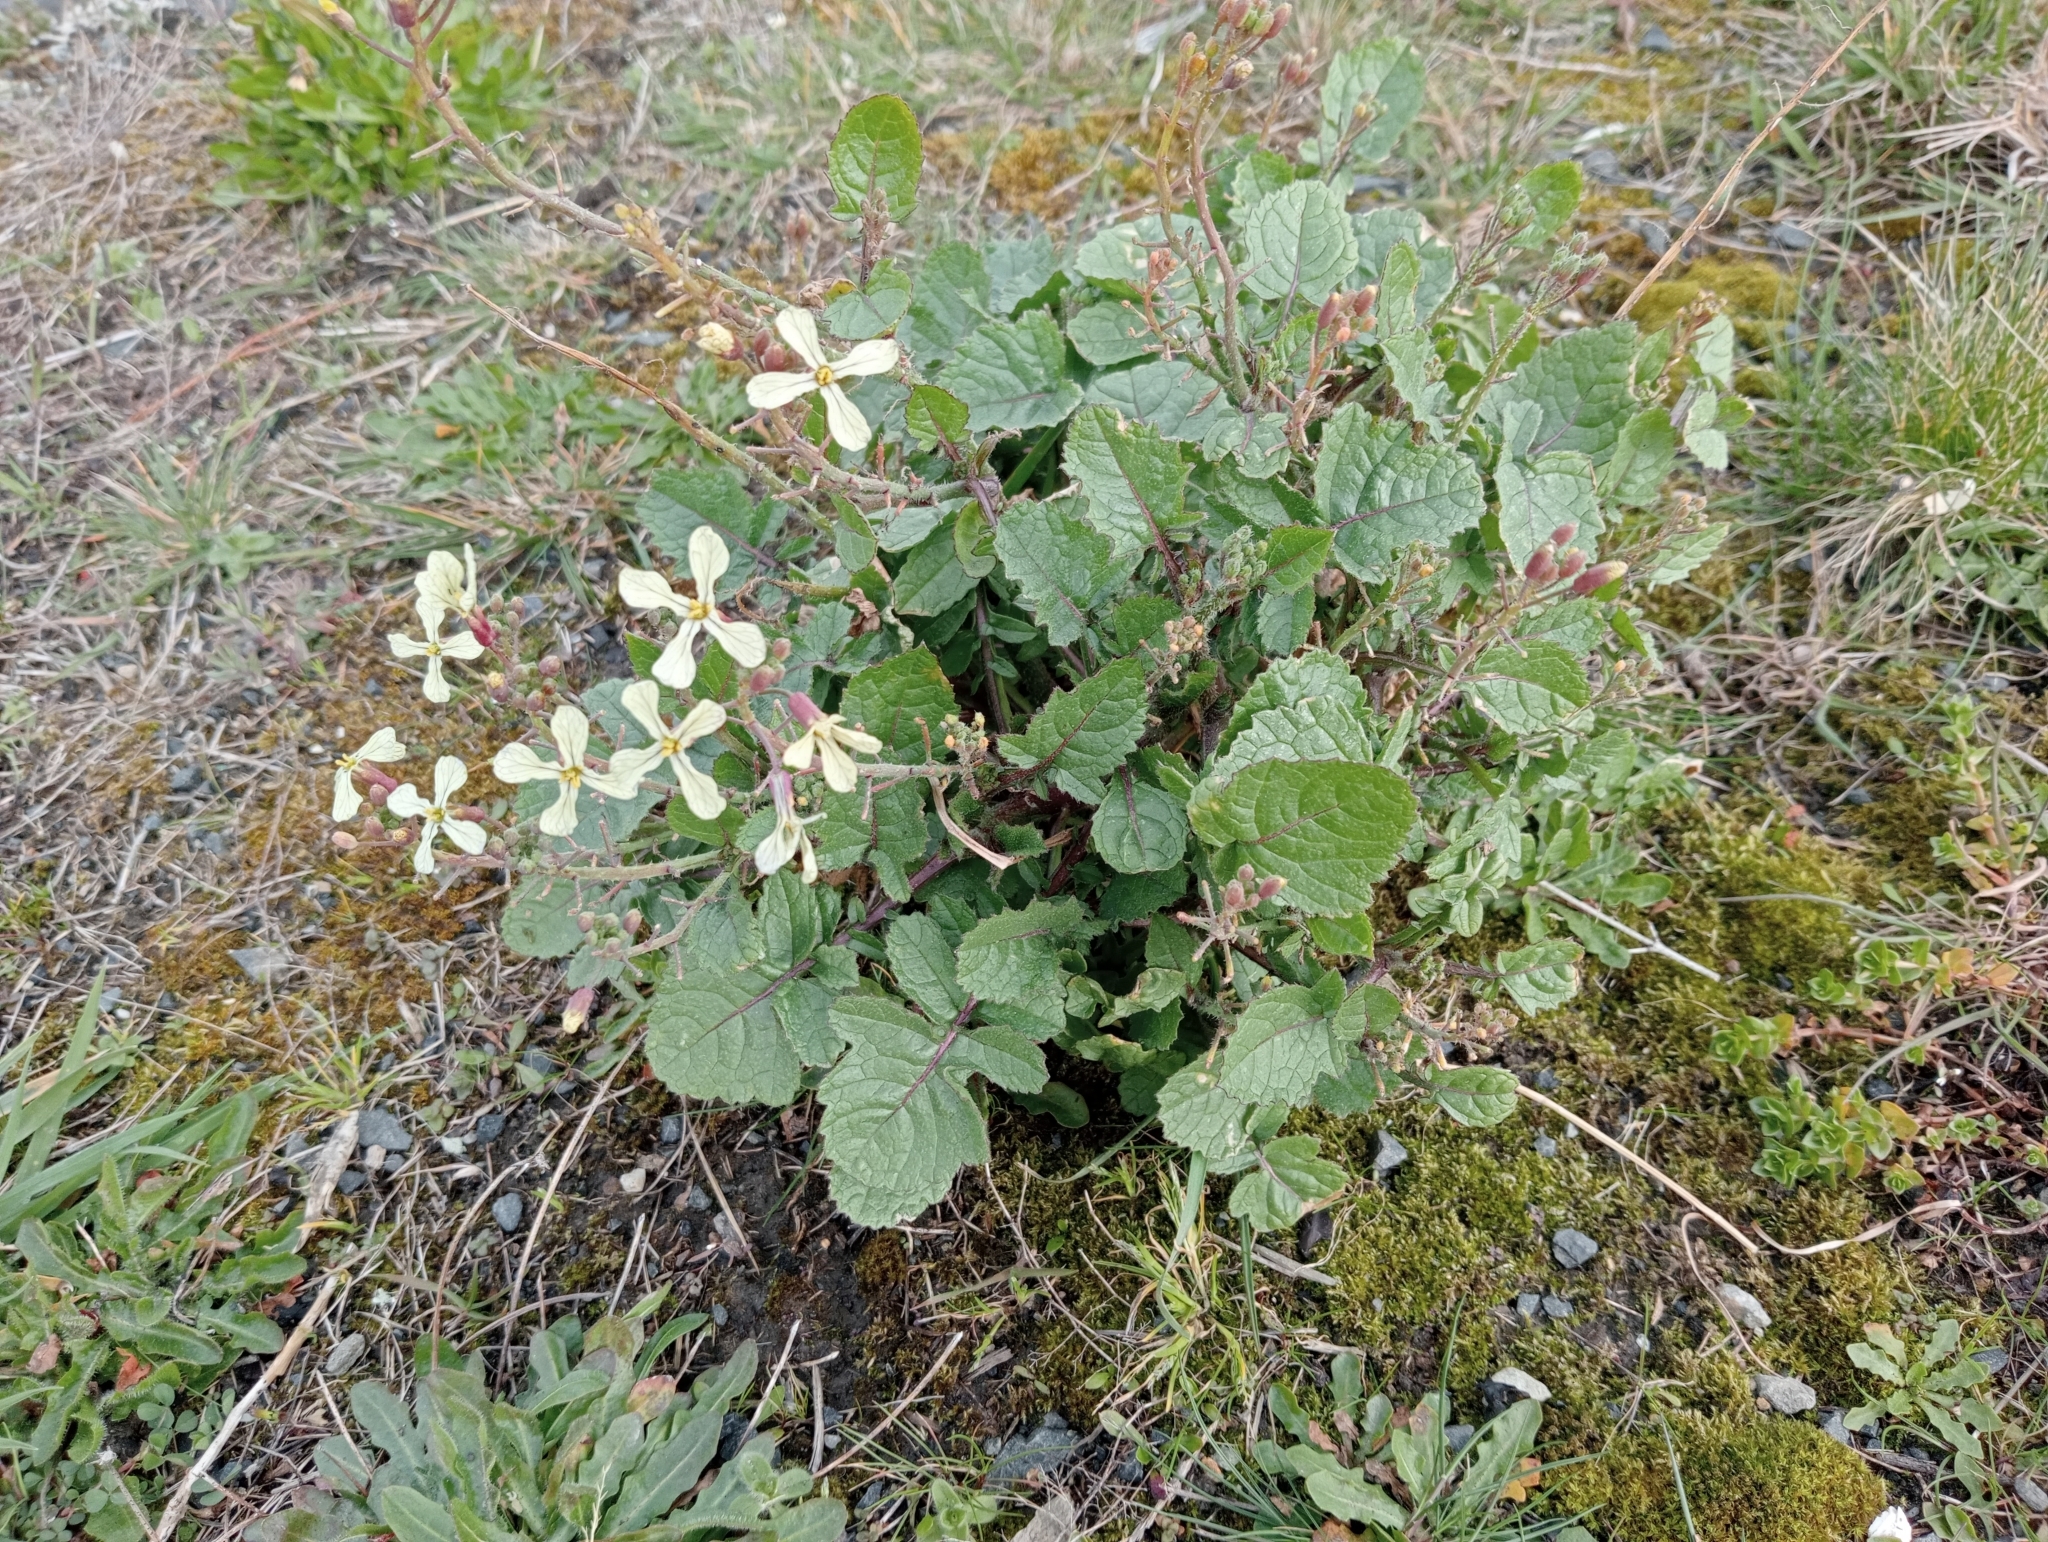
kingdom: Plantae
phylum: Tracheophyta
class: Magnoliopsida
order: Brassicales
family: Brassicaceae
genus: Raphanus
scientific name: Raphanus raphanistrum
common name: Wild radish
